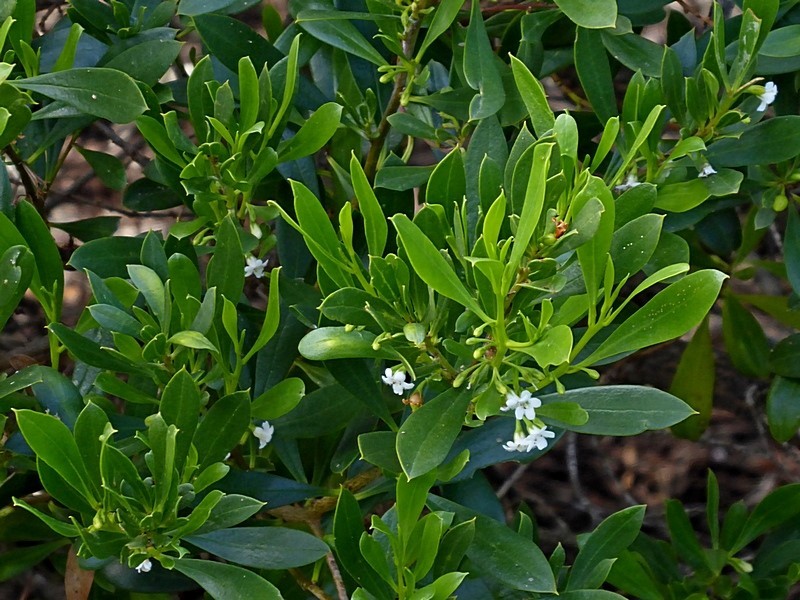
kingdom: Plantae
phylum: Tracheophyta
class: Magnoliopsida
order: Lamiales
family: Scrophulariaceae
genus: Myoporum
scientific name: Myoporum boninense
